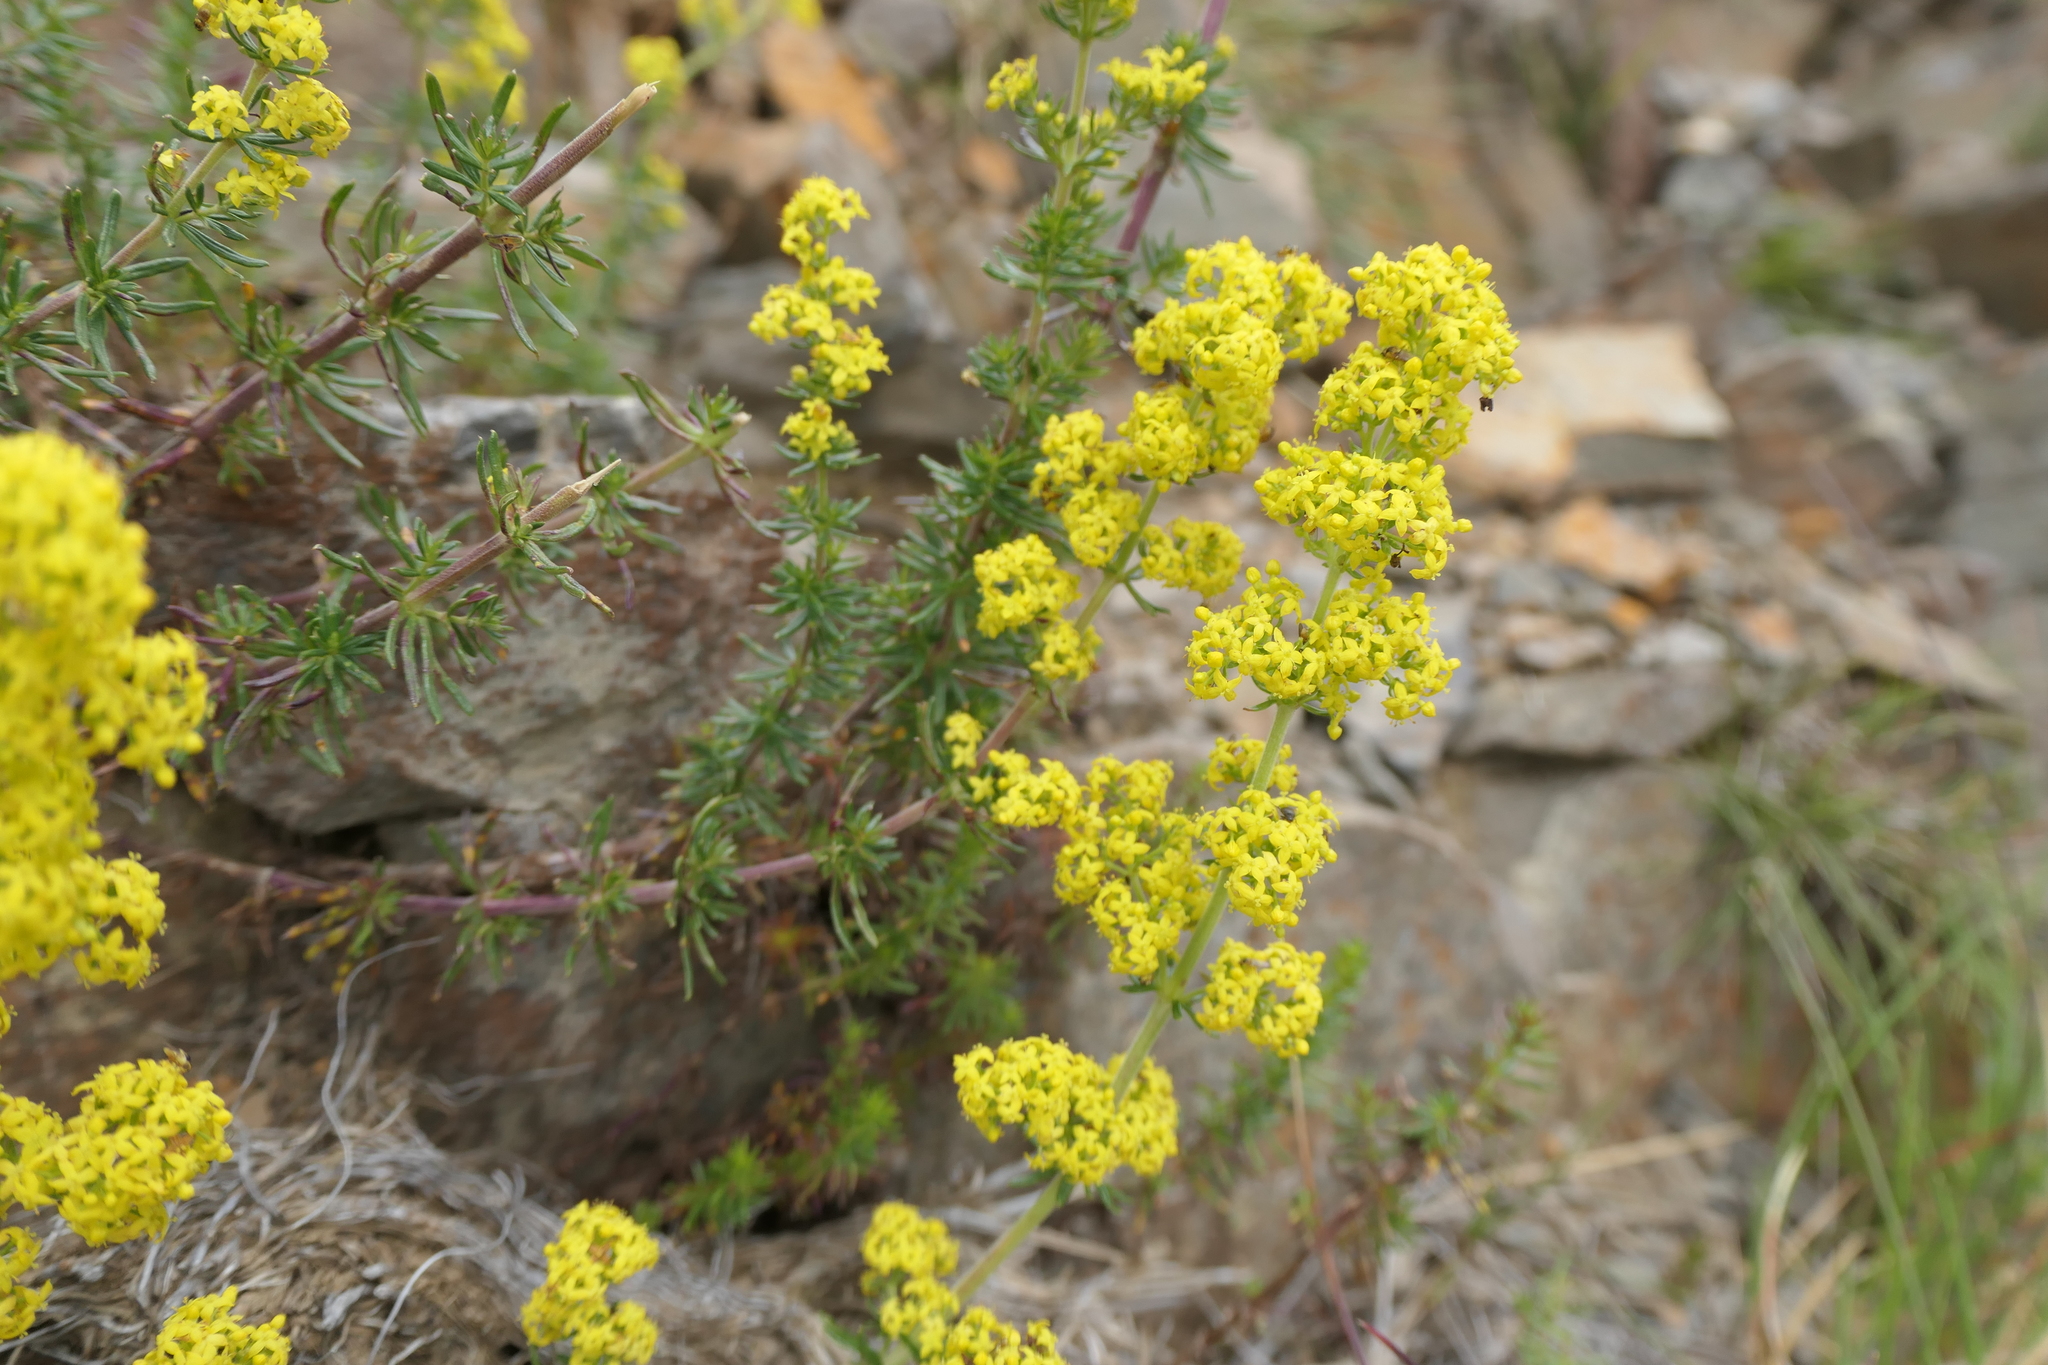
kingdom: Plantae
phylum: Tracheophyta
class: Magnoliopsida
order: Gentianales
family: Rubiaceae
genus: Galium
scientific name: Galium verum
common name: Lady's bedstraw
